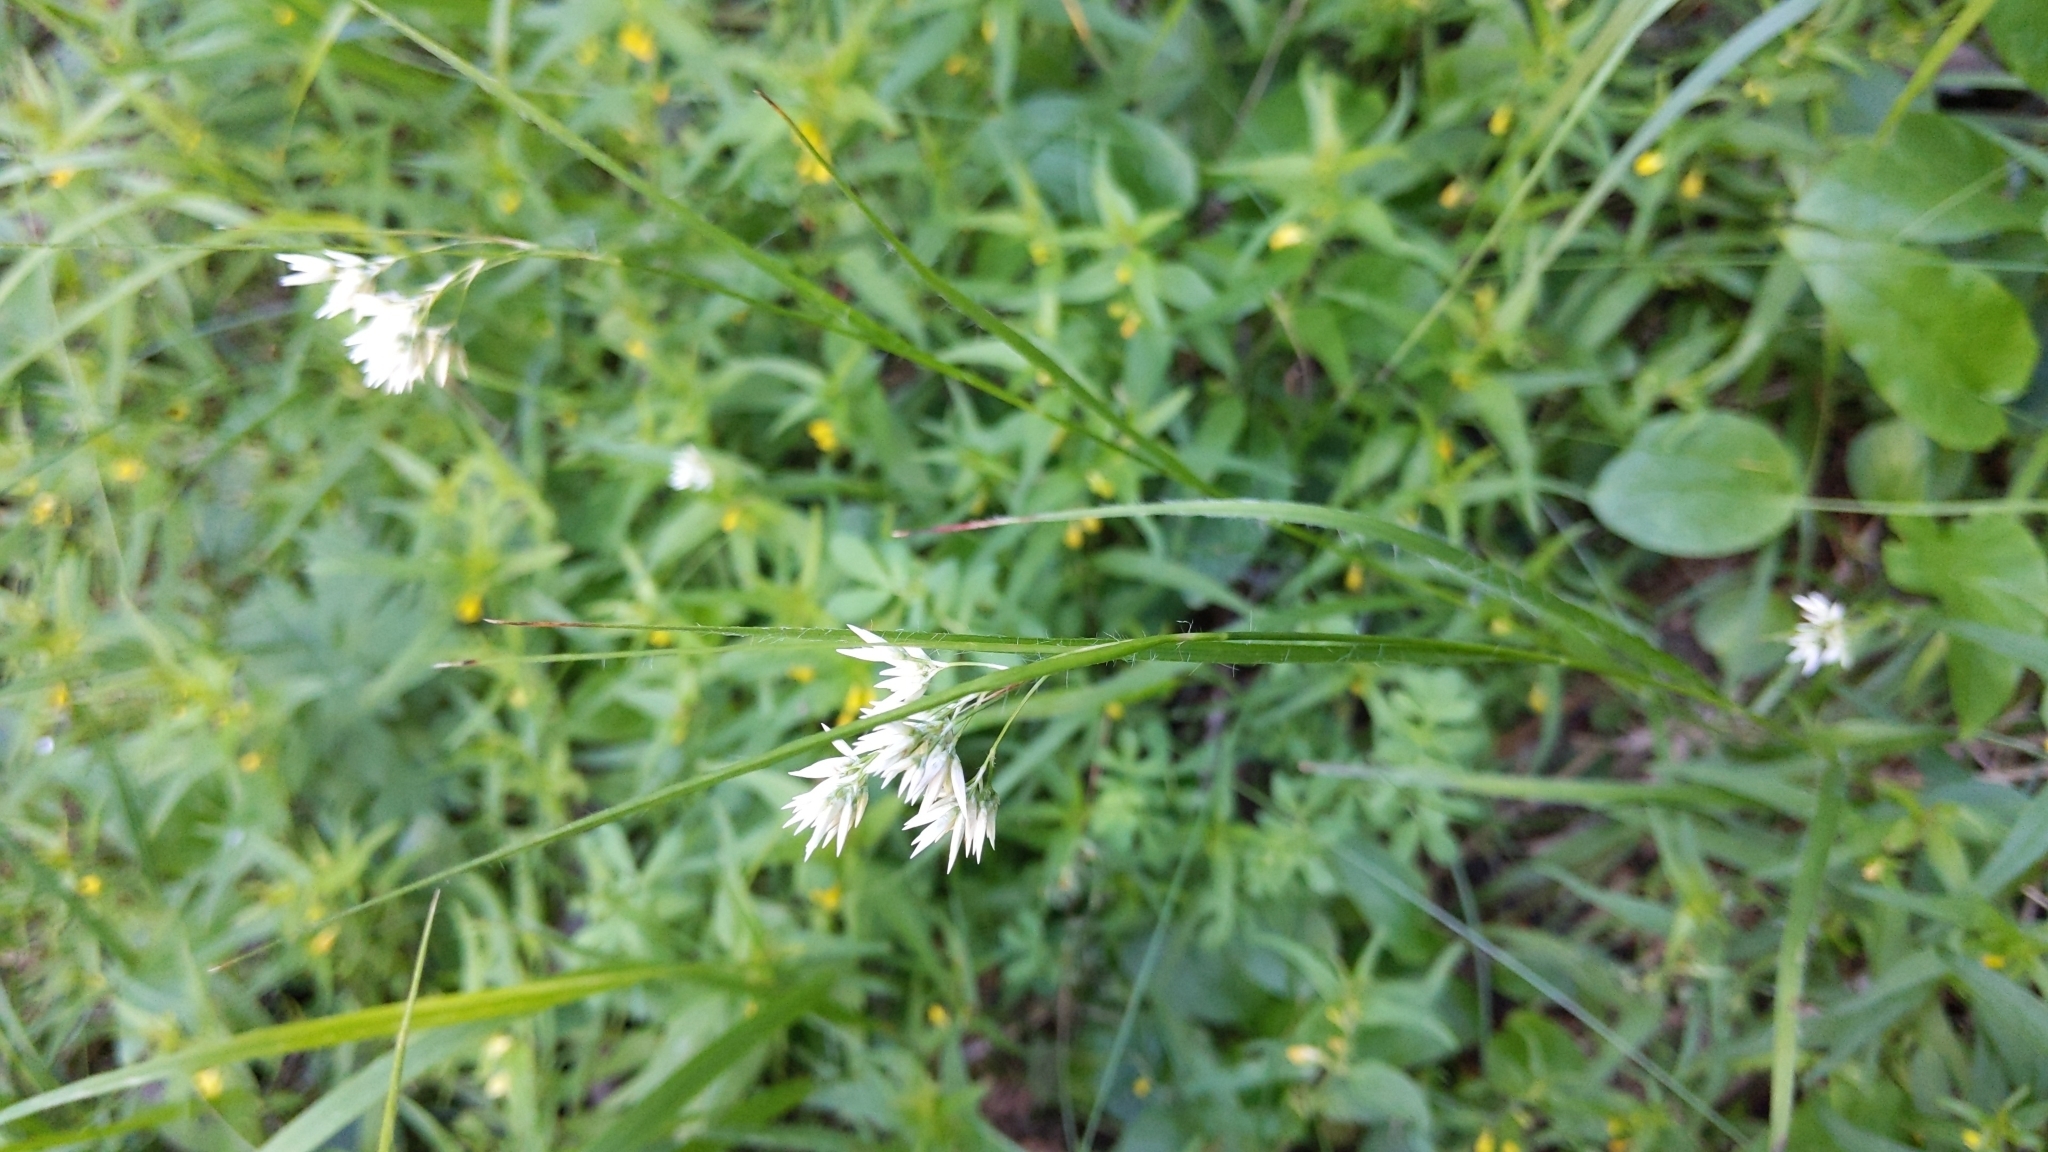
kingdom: Plantae
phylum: Tracheophyta
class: Liliopsida
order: Poales
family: Juncaceae
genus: Luzula
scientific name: Luzula nivea
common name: Snow-white wood-rush
